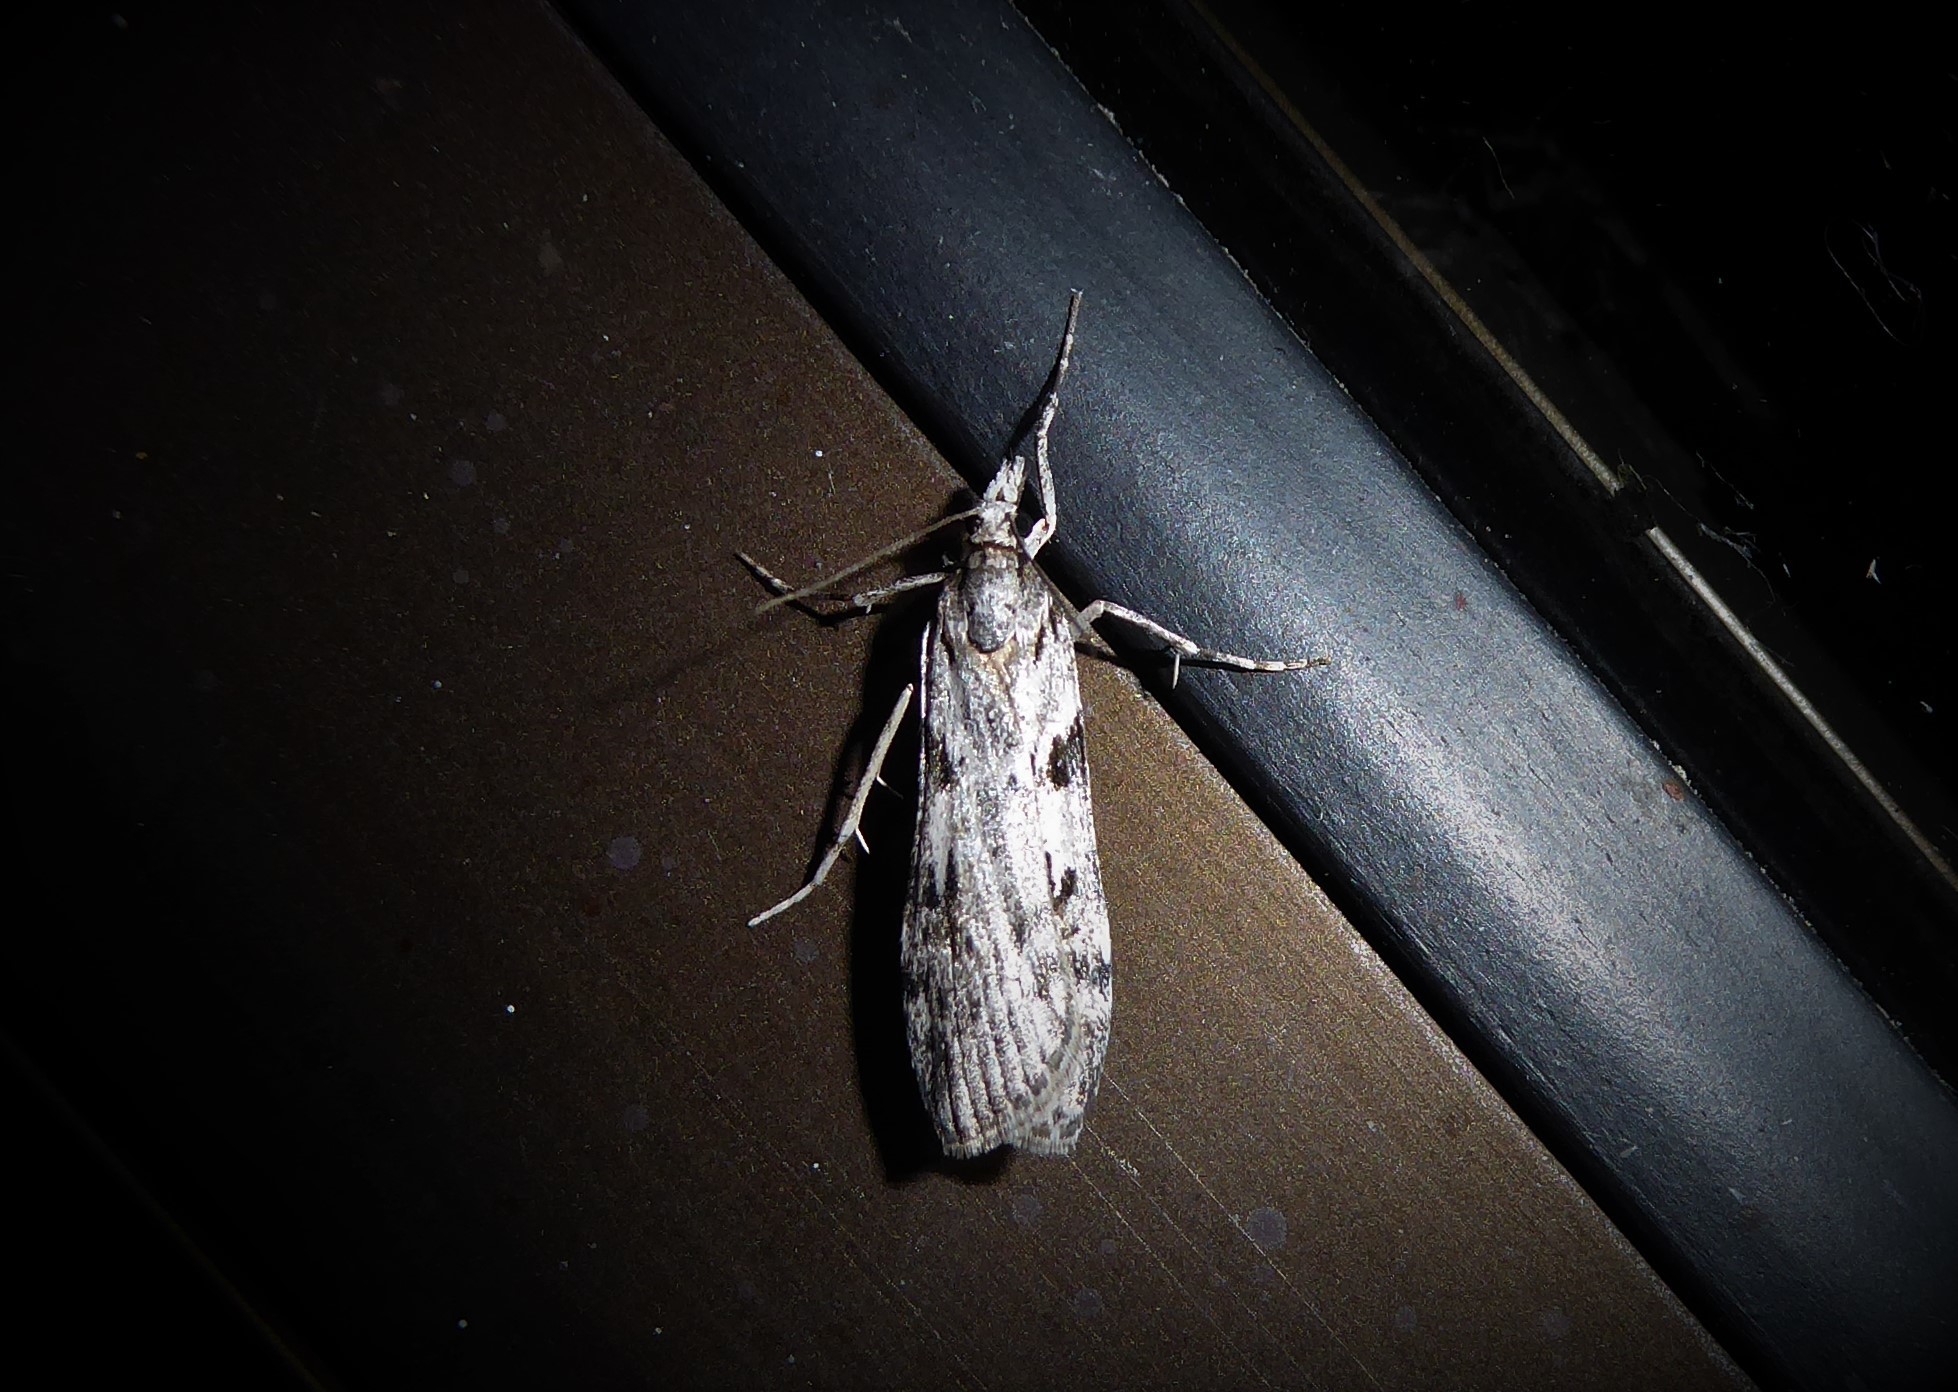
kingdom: Animalia
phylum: Arthropoda
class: Insecta
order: Lepidoptera
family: Crambidae
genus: Scoparia
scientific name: Scoparia halopis
